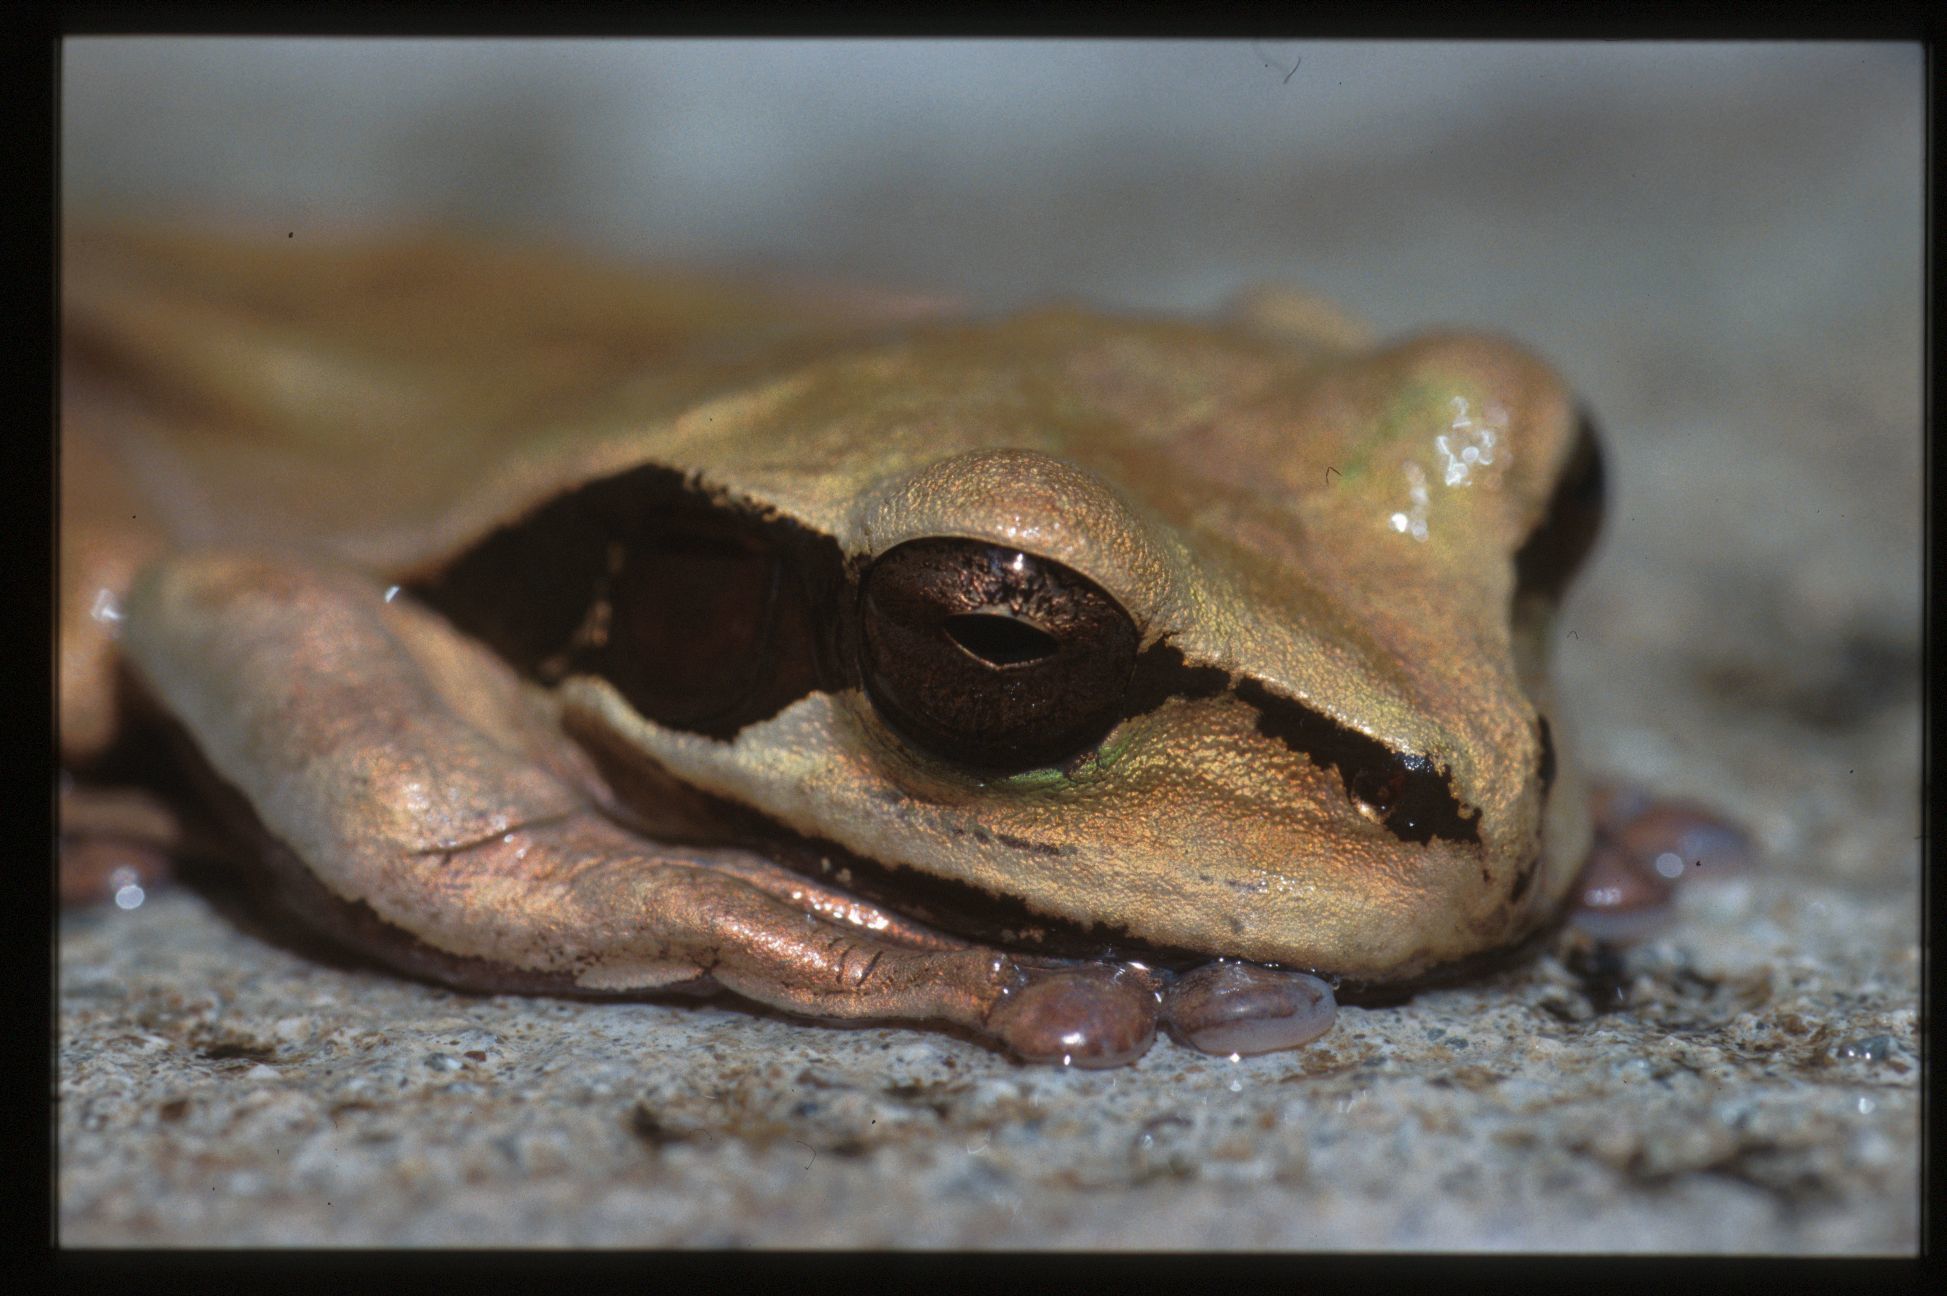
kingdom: Animalia
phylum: Chordata
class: Amphibia
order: Anura
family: Hylidae
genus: Smilisca
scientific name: Smilisca phaeota
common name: Central american smilisca
